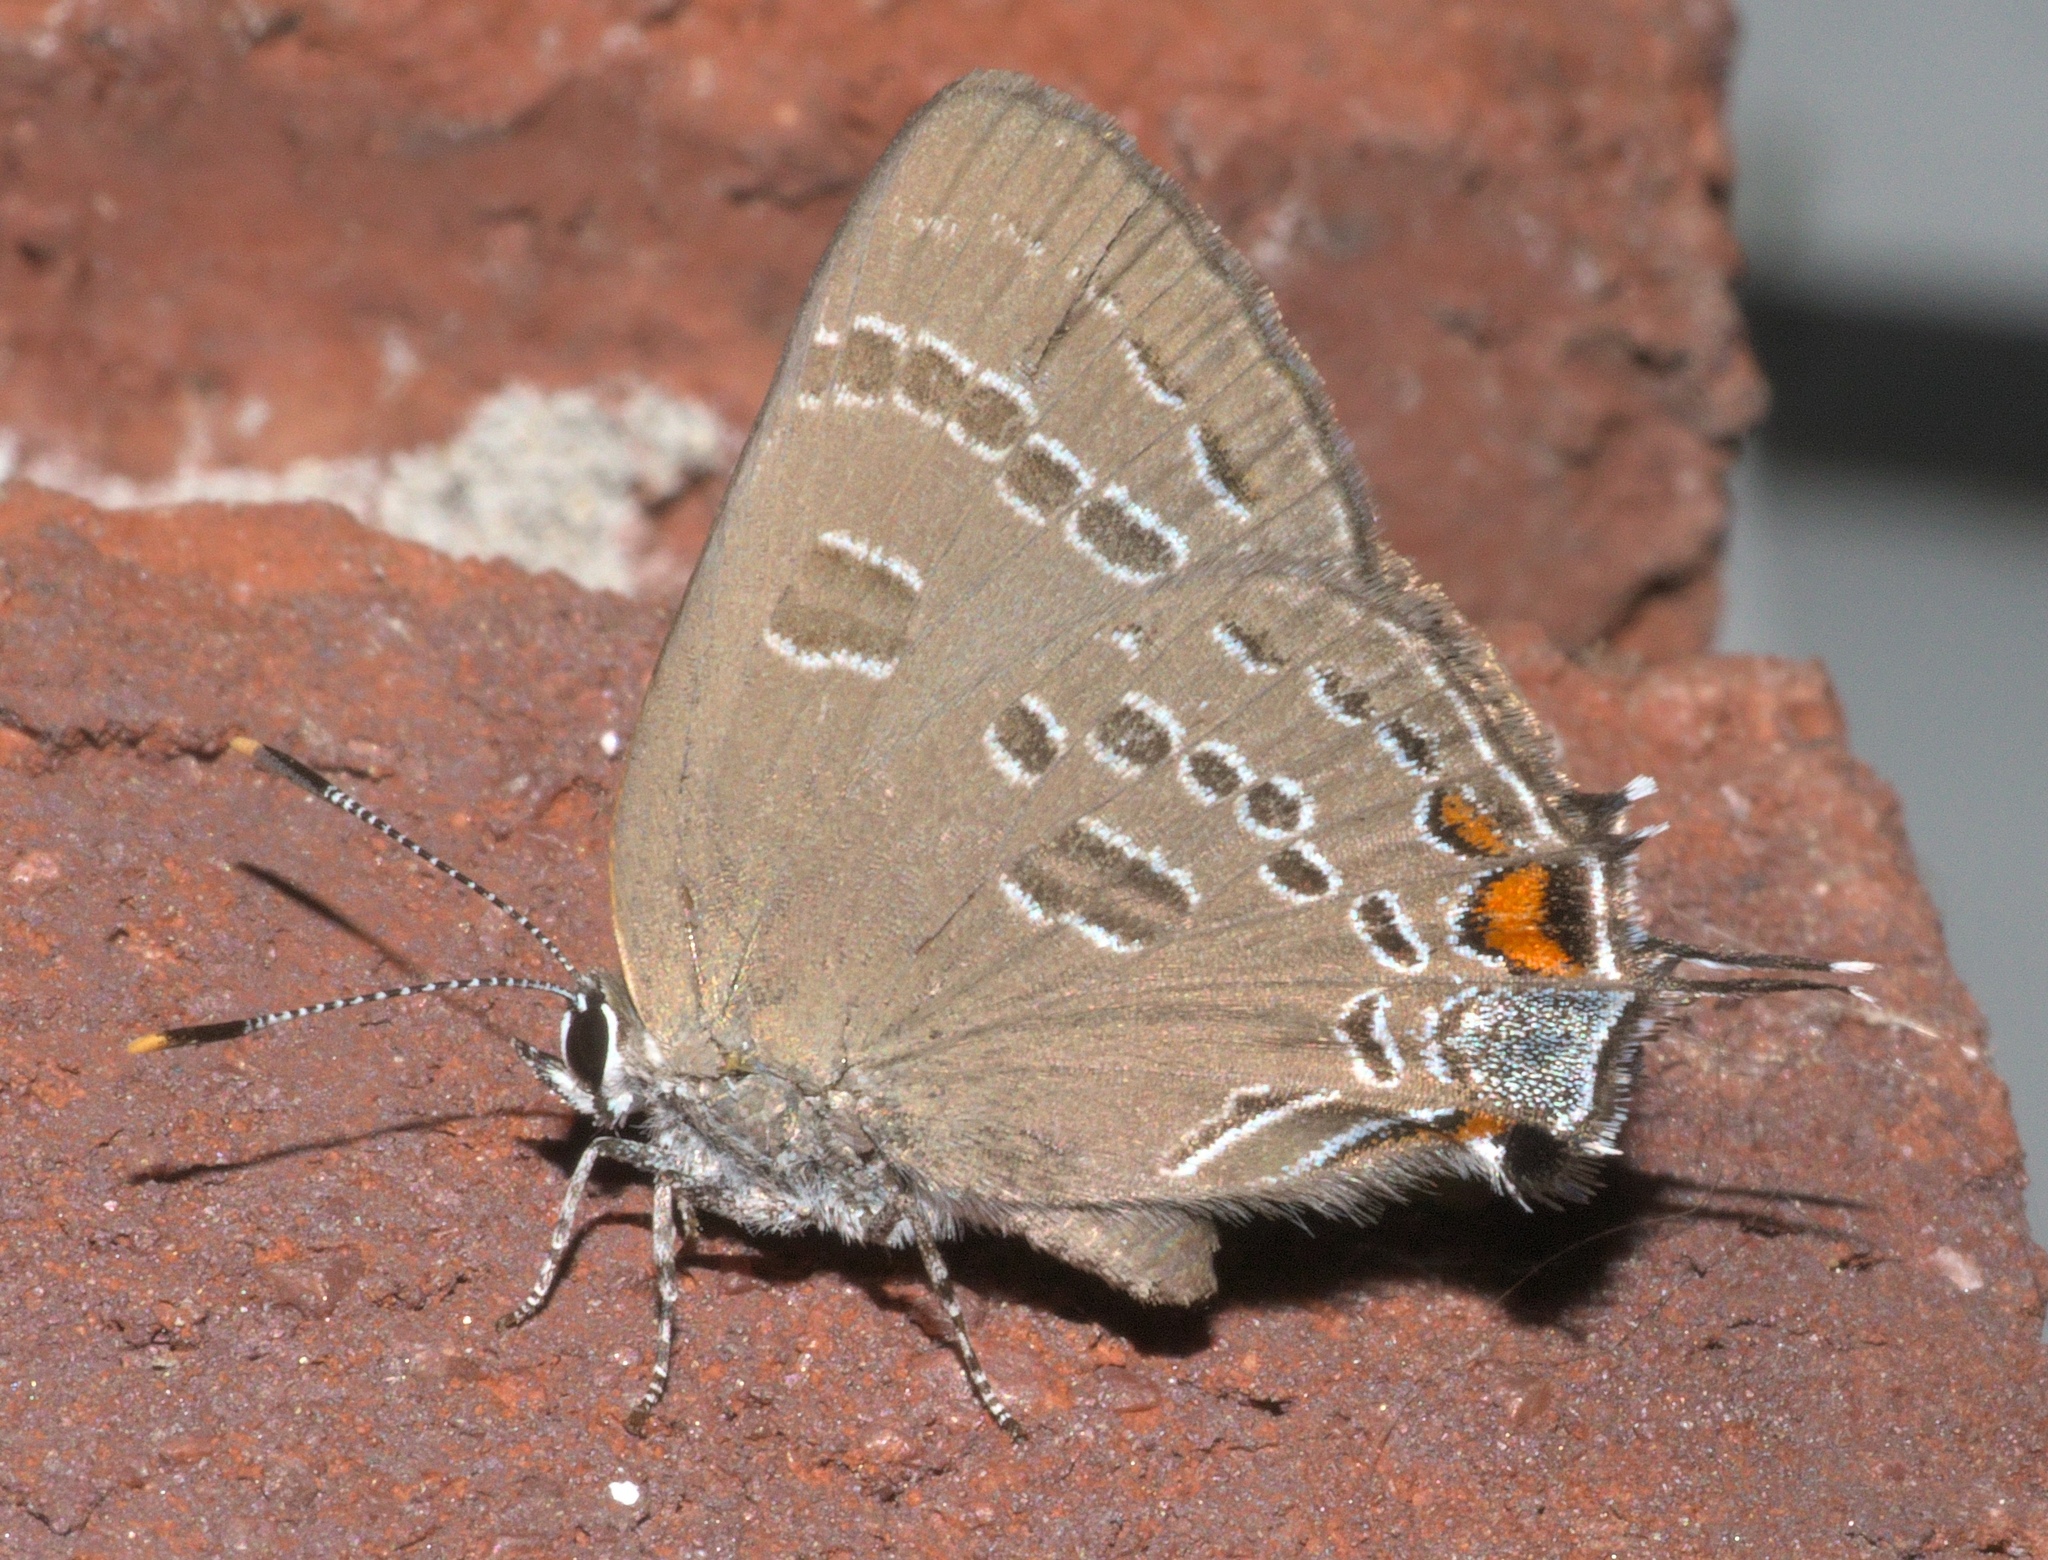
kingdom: Animalia
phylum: Arthropoda
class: Insecta
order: Lepidoptera
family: Lycaenidae
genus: Satyrium
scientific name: Satyrium calanus
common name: Banded hairstreak
